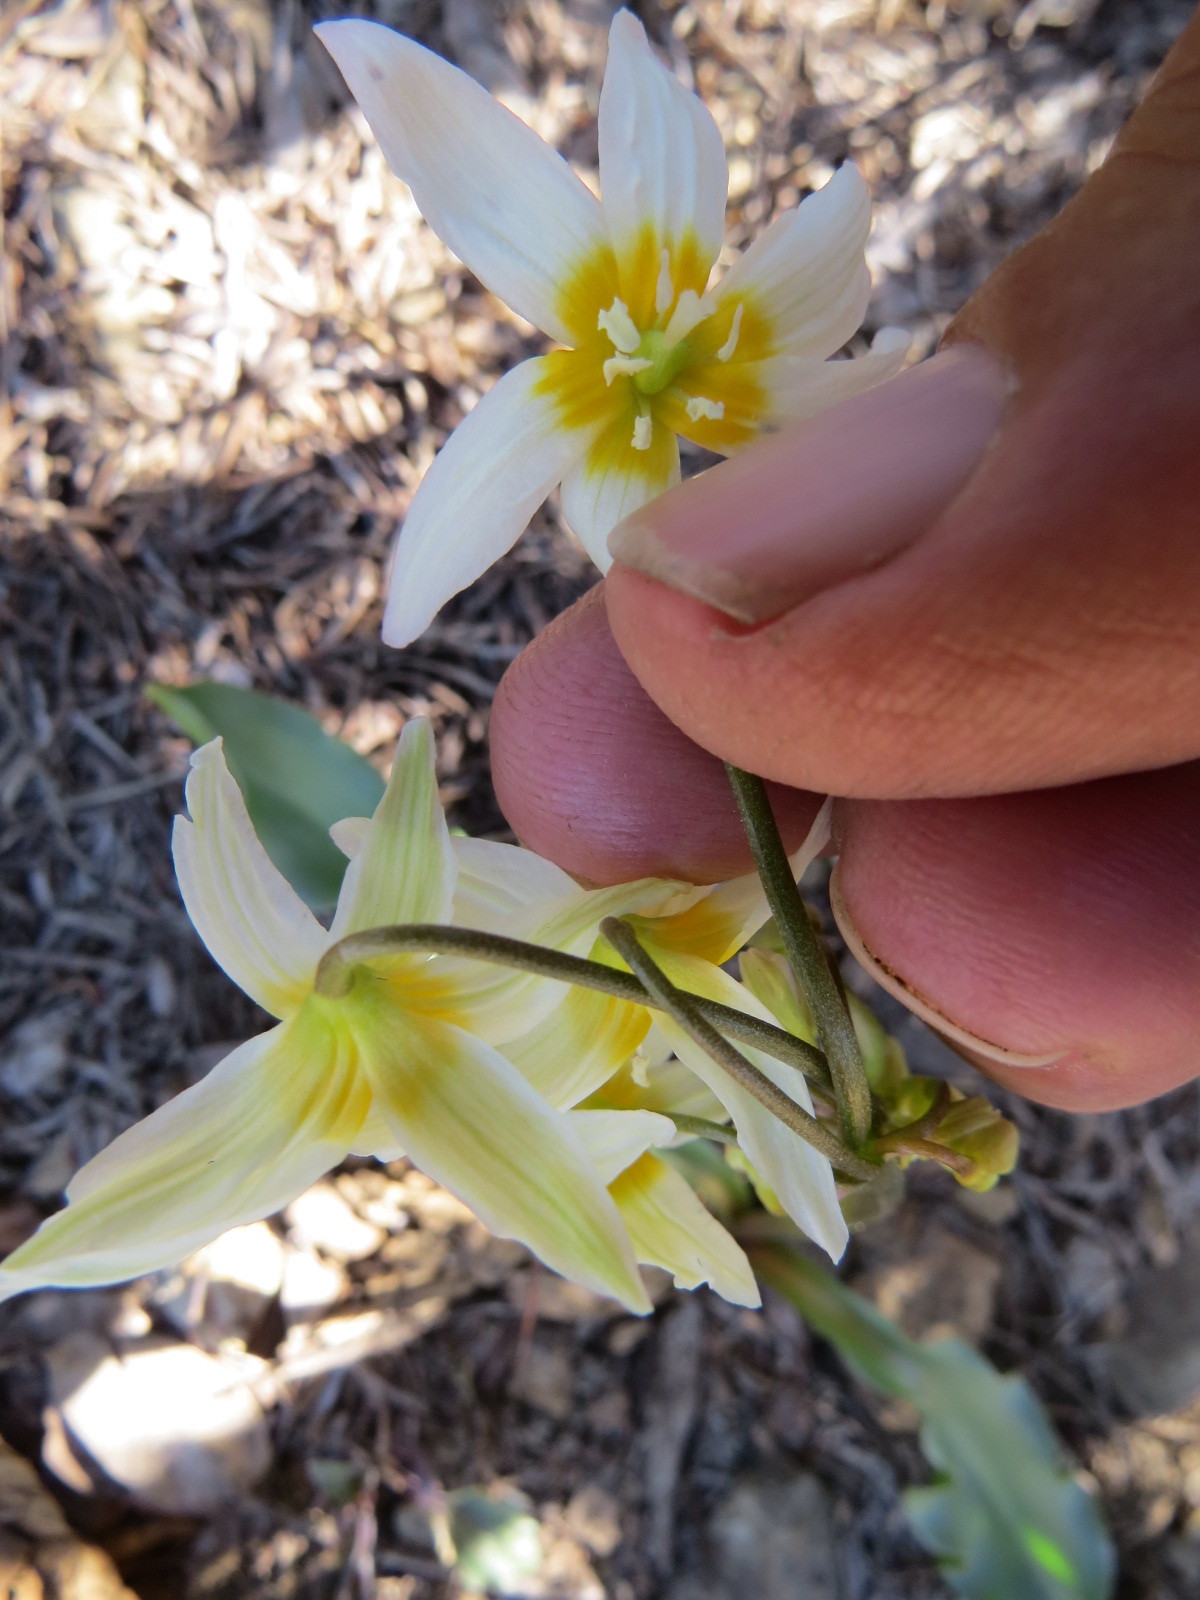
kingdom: Plantae
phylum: Tracheophyta
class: Liliopsida
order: Liliales
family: Liliaceae
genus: Erythronium
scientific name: Erythronium purpurascens
